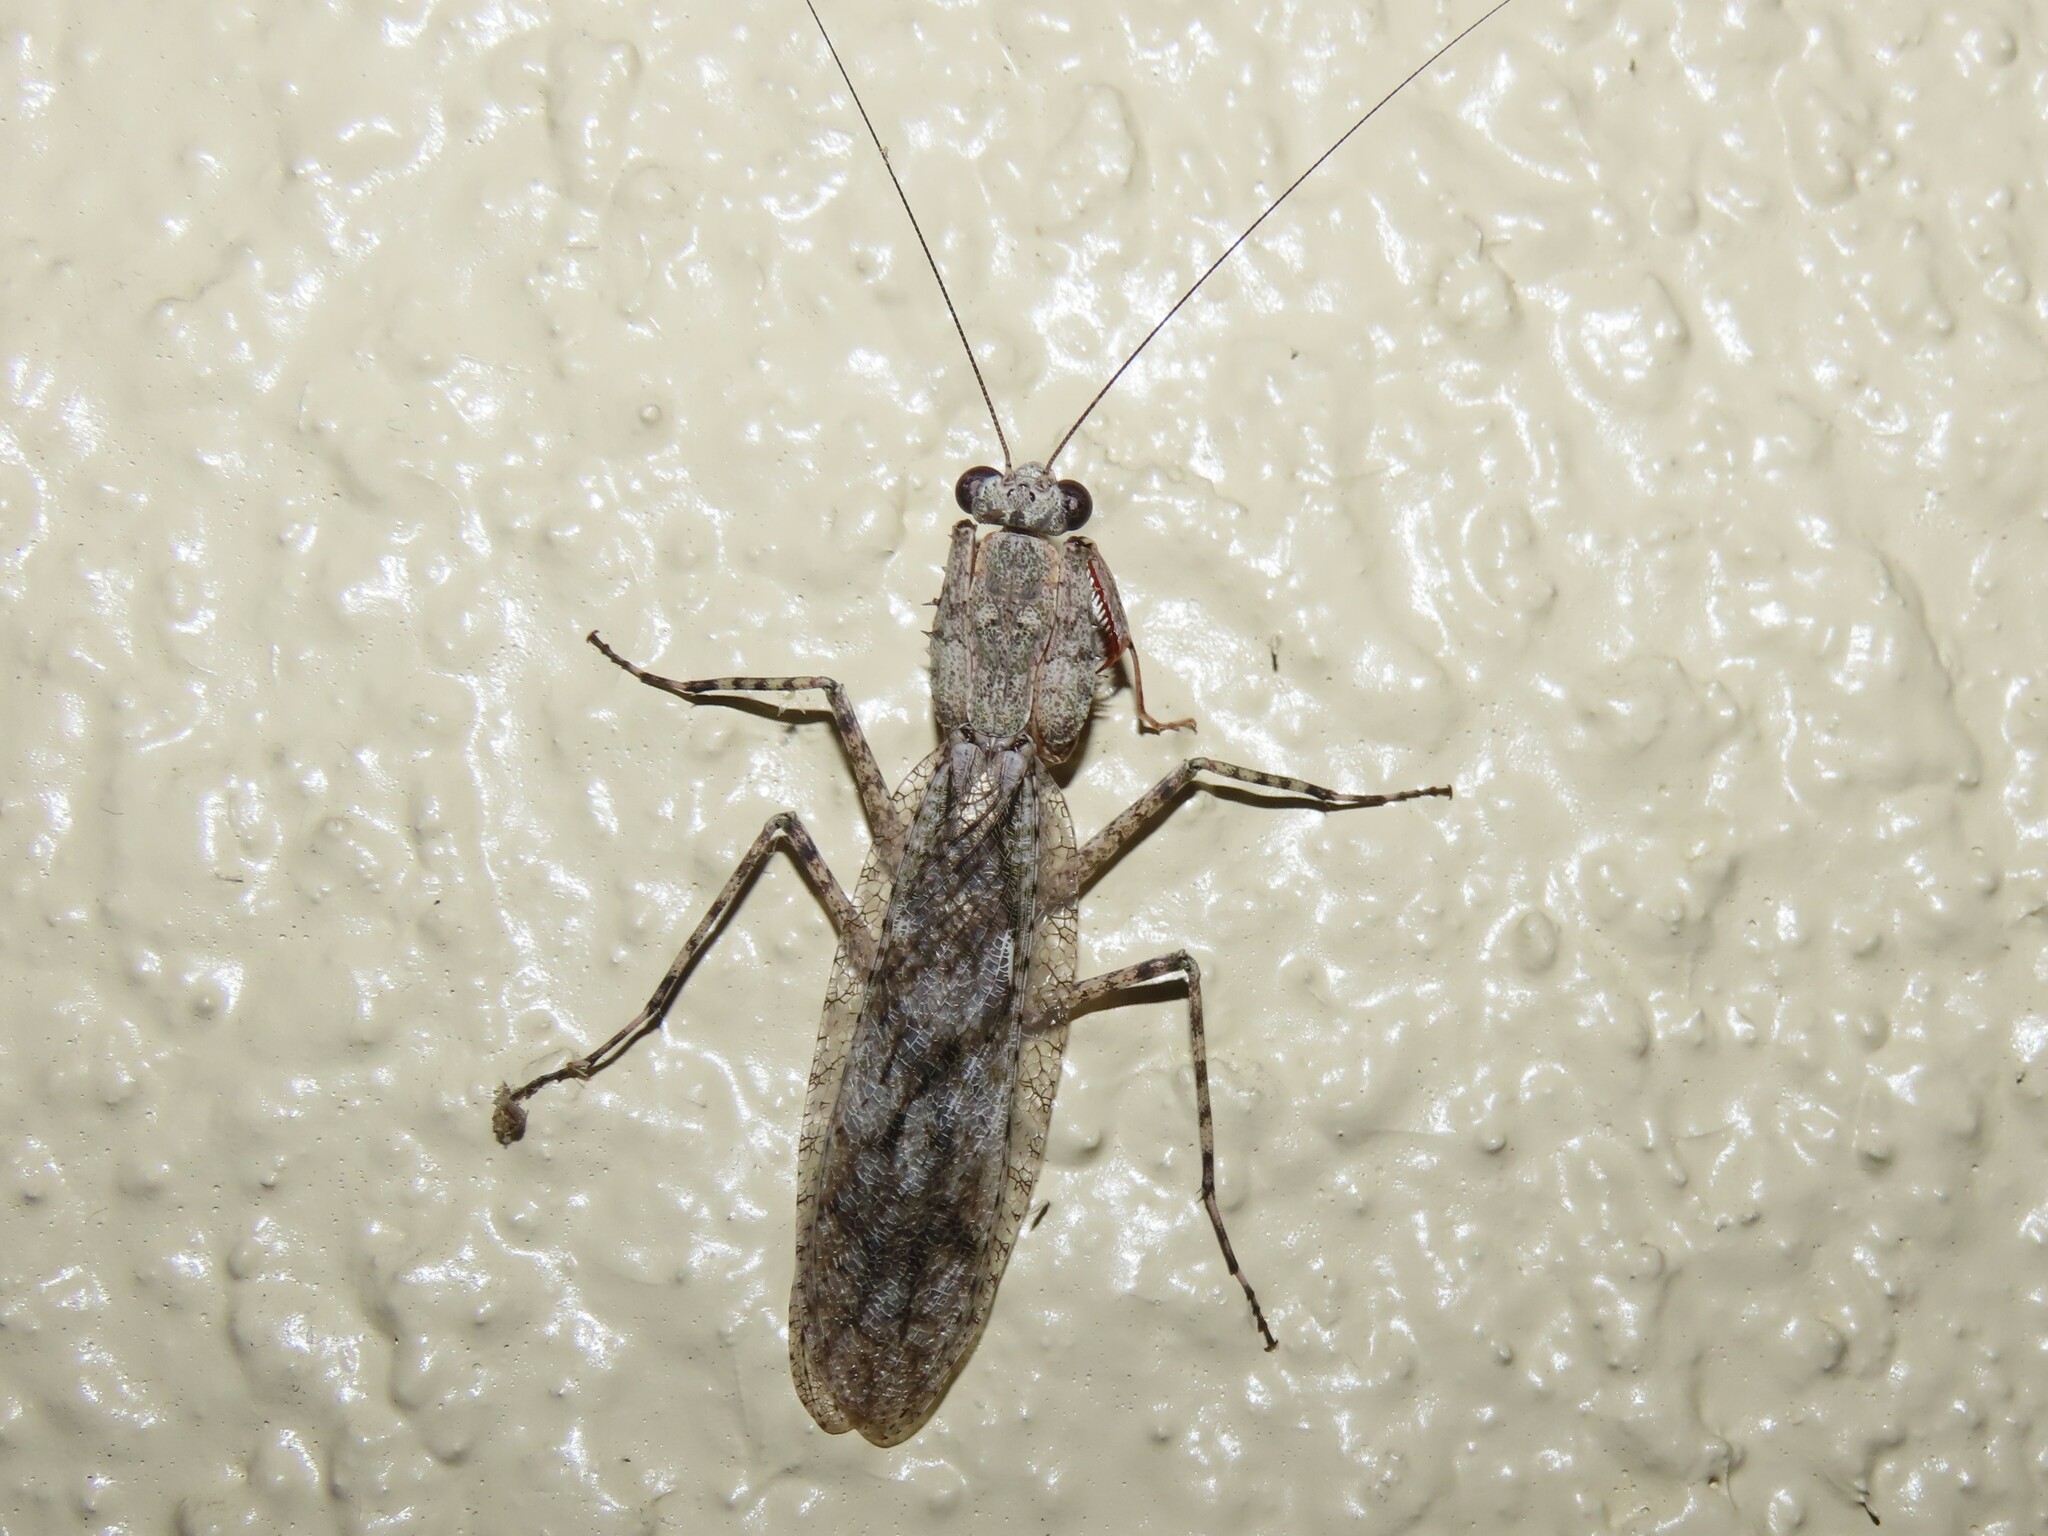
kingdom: Animalia
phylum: Arthropoda
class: Insecta
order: Mantodea
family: Epaphroditidae
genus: Gonatista
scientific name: Gonatista grisea
